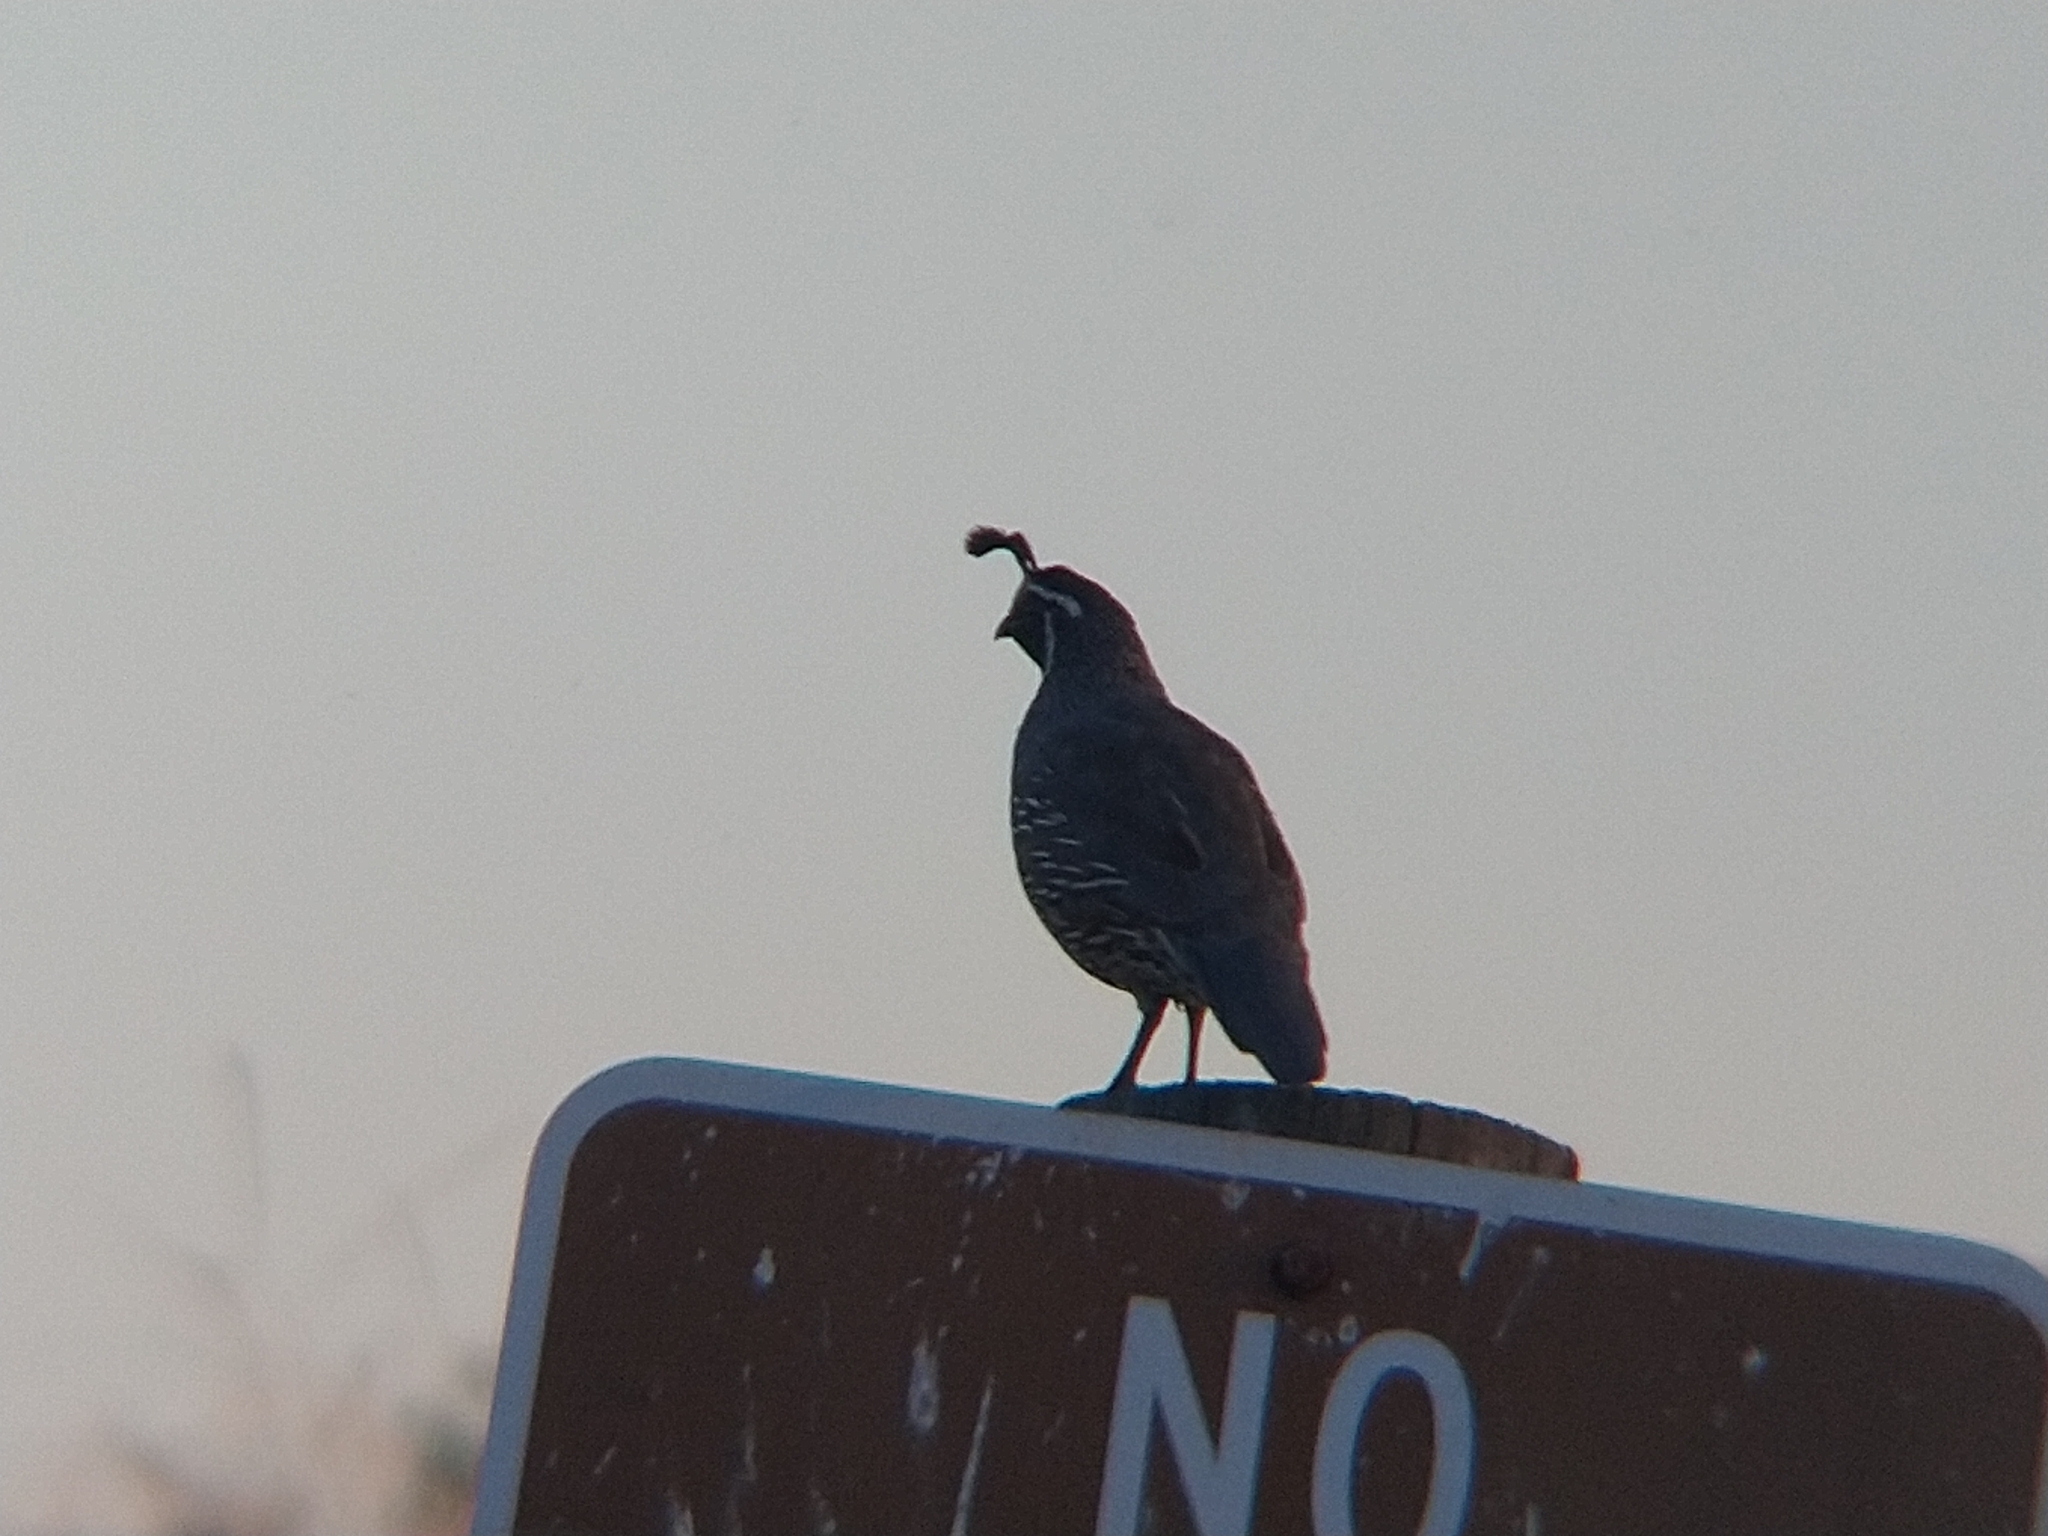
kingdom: Animalia
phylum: Chordata
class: Aves
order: Galliformes
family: Odontophoridae
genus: Callipepla
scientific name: Callipepla californica
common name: California quail
